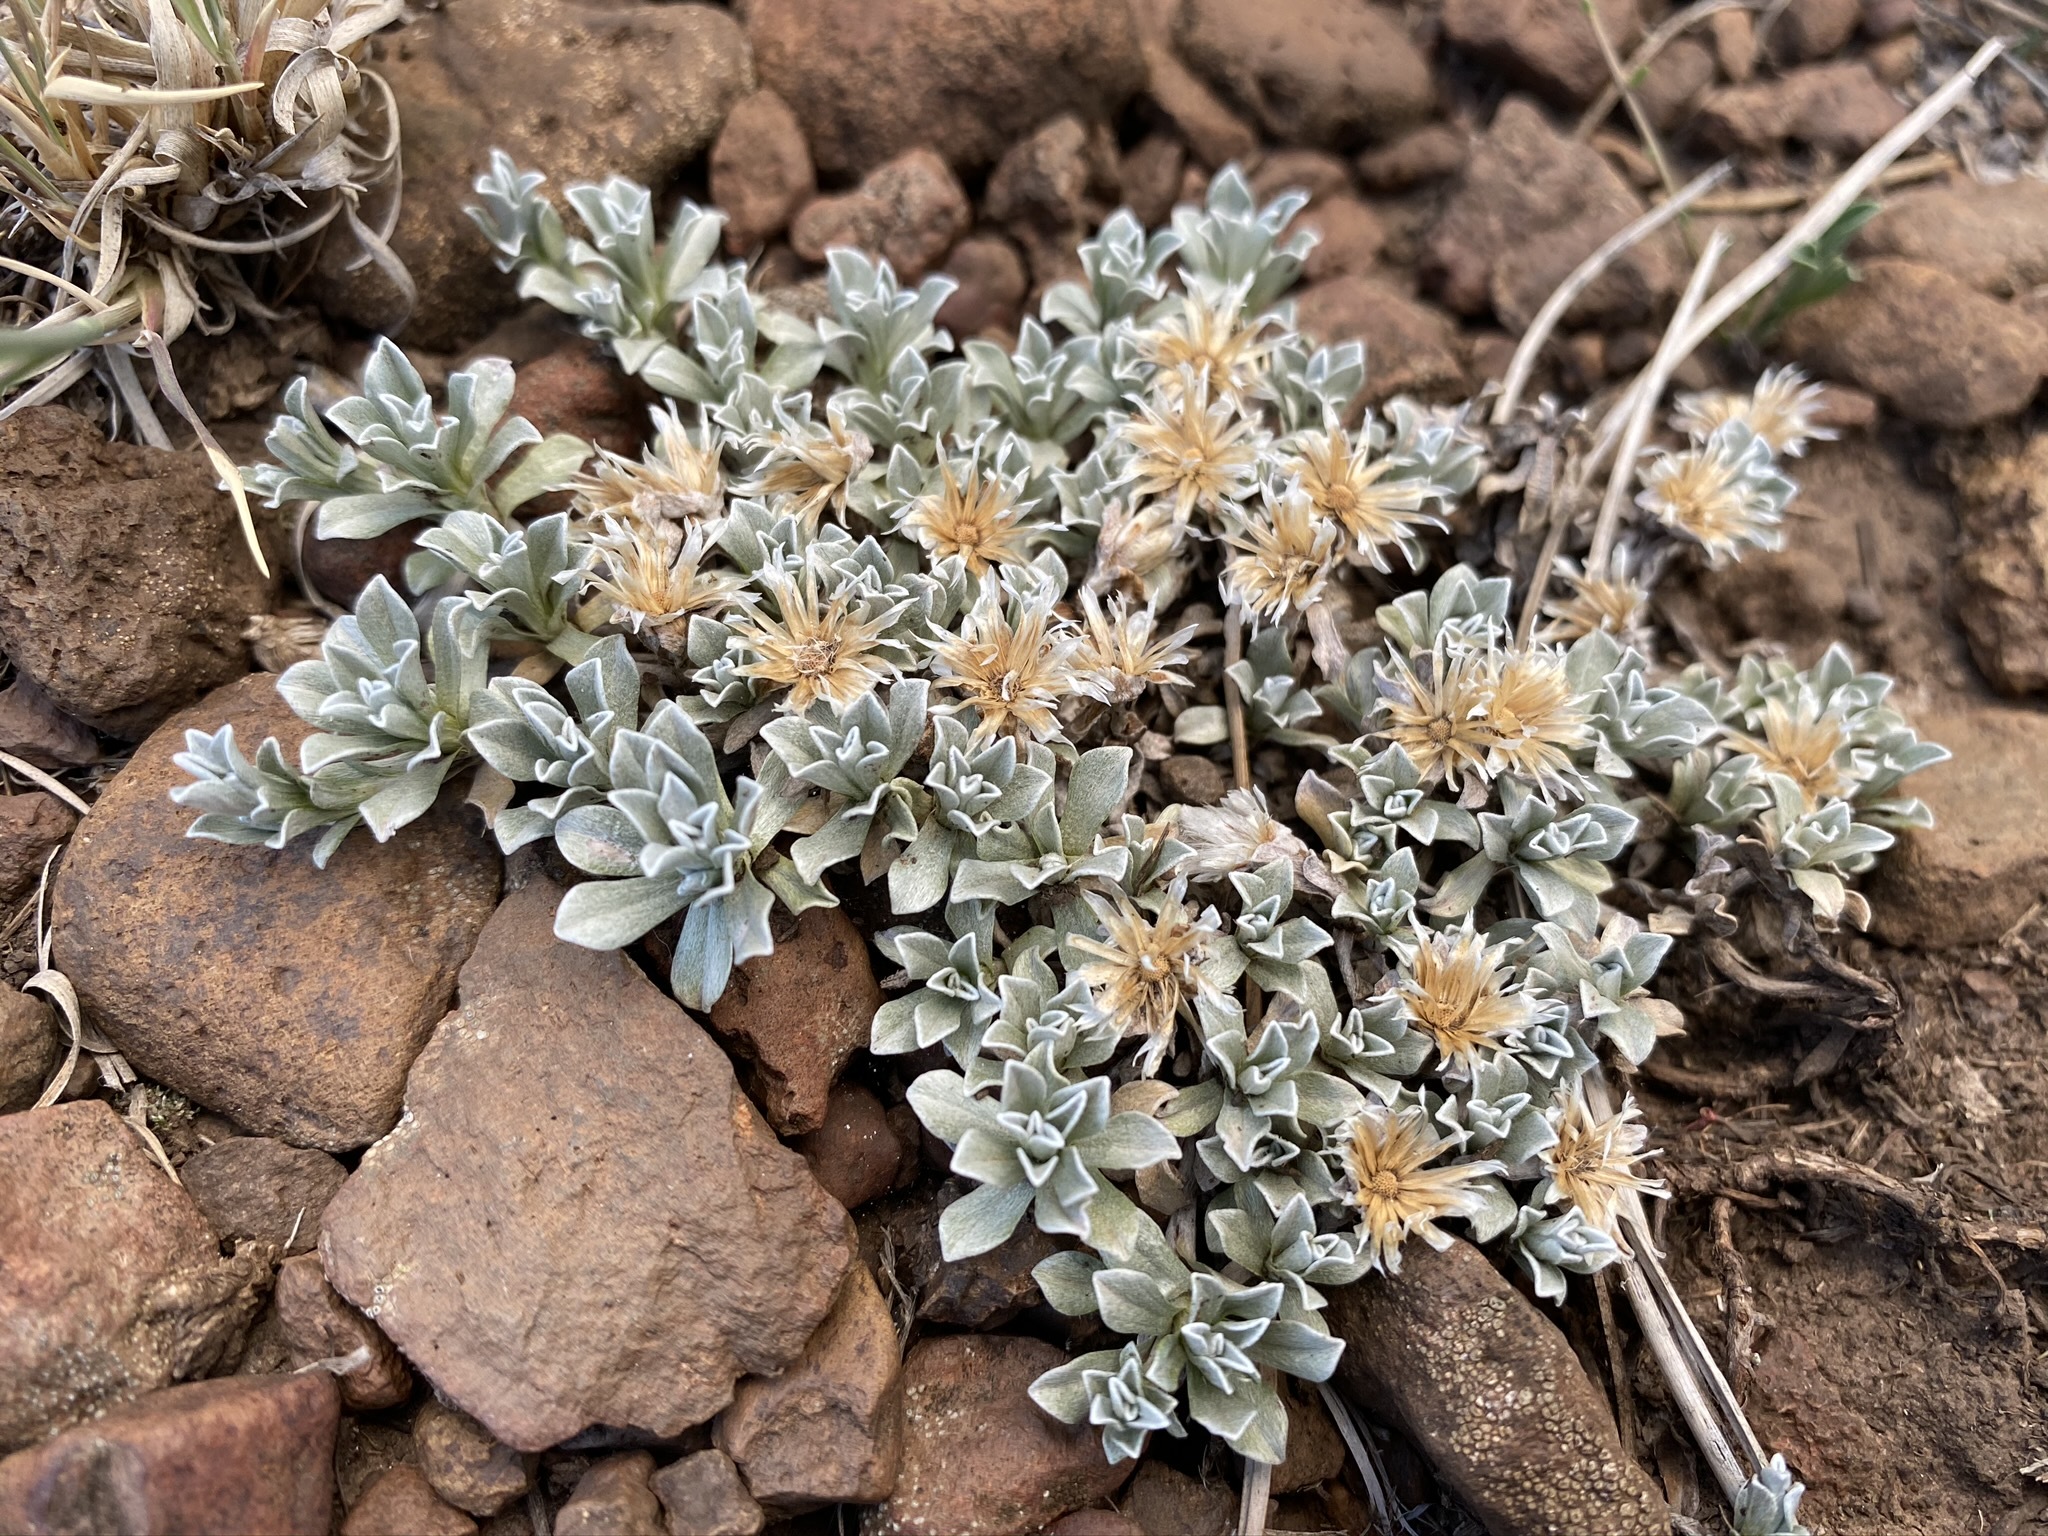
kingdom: Plantae
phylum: Tracheophyta
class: Magnoliopsida
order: Asterales
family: Asteraceae
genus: Antennaria
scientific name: Antennaria rosulata
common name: Woolly pussytoes
